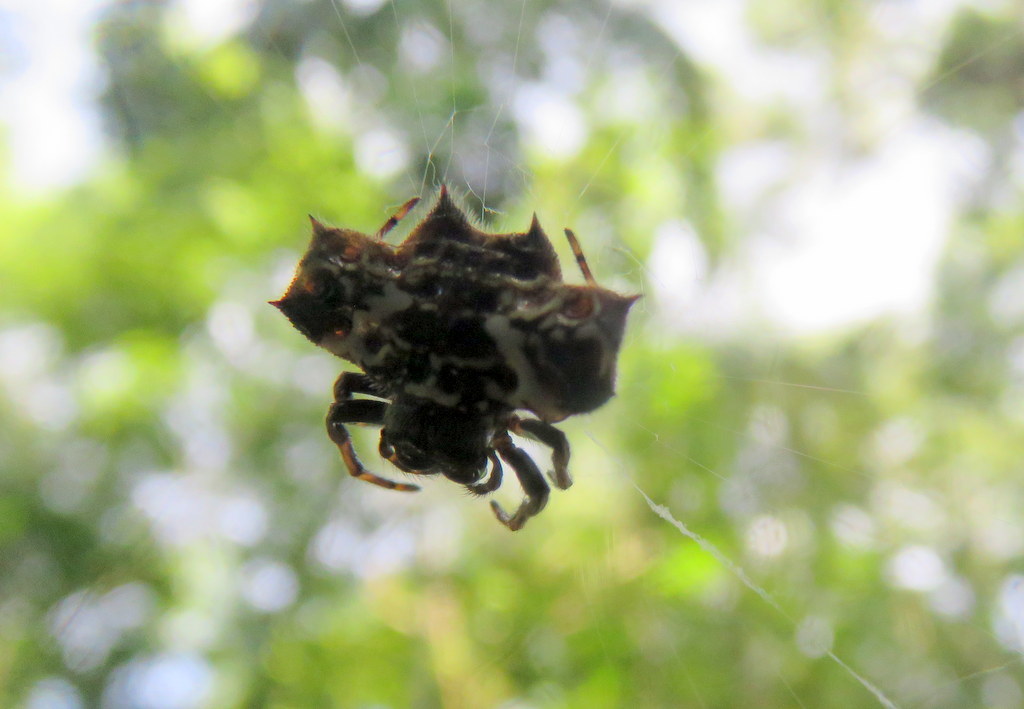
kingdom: Animalia
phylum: Arthropoda
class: Arachnida
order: Araneae
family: Araneidae
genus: Gasteracantha
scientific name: Gasteracantha cancriformis
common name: Orb weavers
